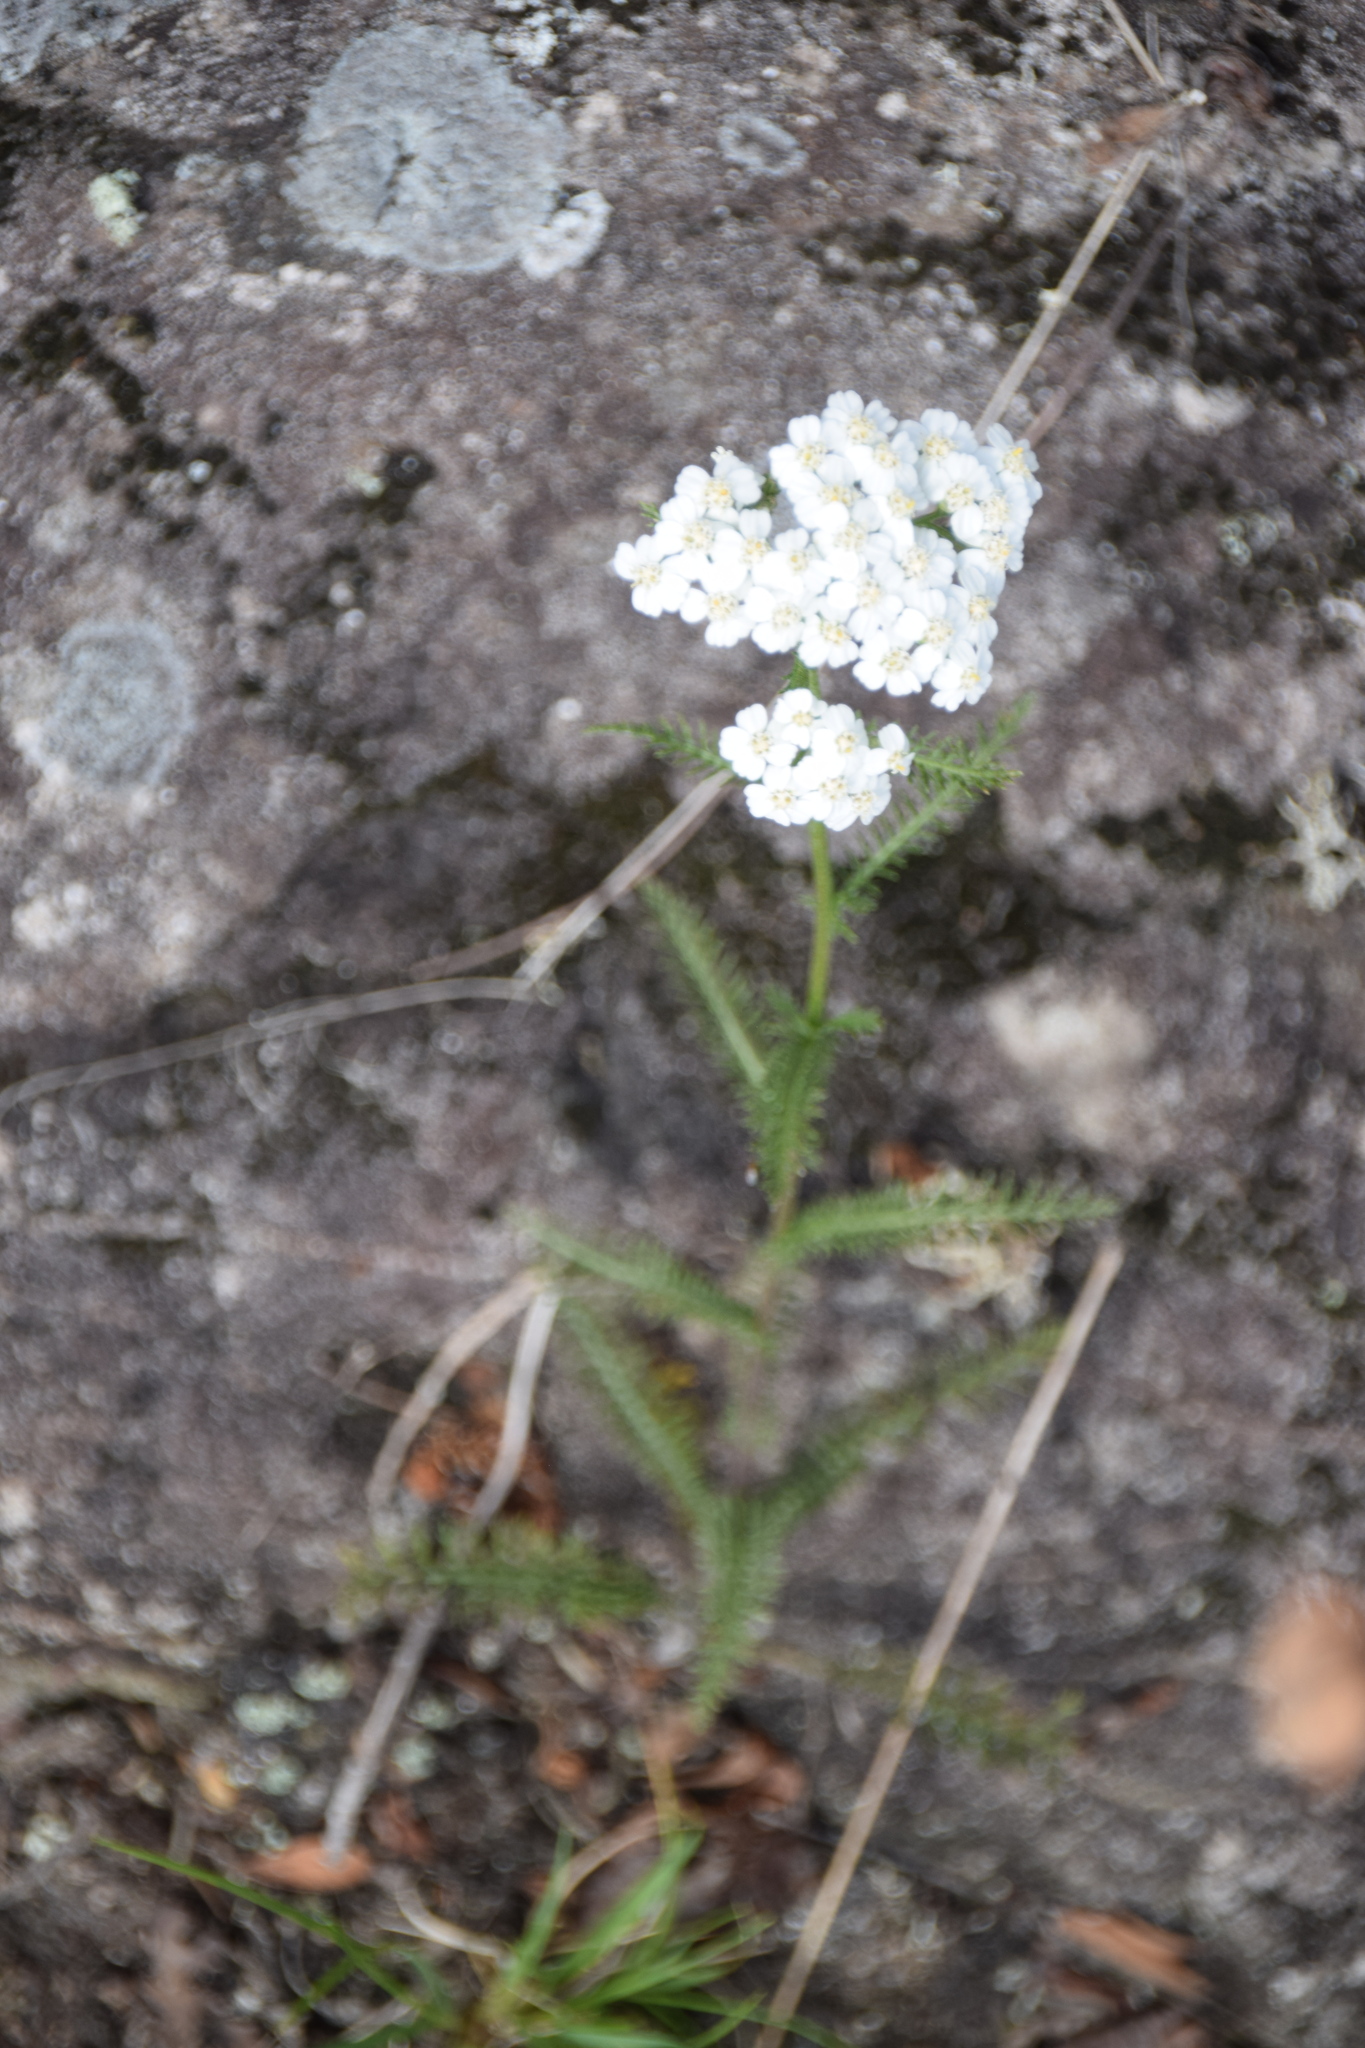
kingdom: Plantae
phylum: Tracheophyta
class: Magnoliopsida
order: Asterales
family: Asteraceae
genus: Achillea
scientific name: Achillea millefolium
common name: Yarrow
